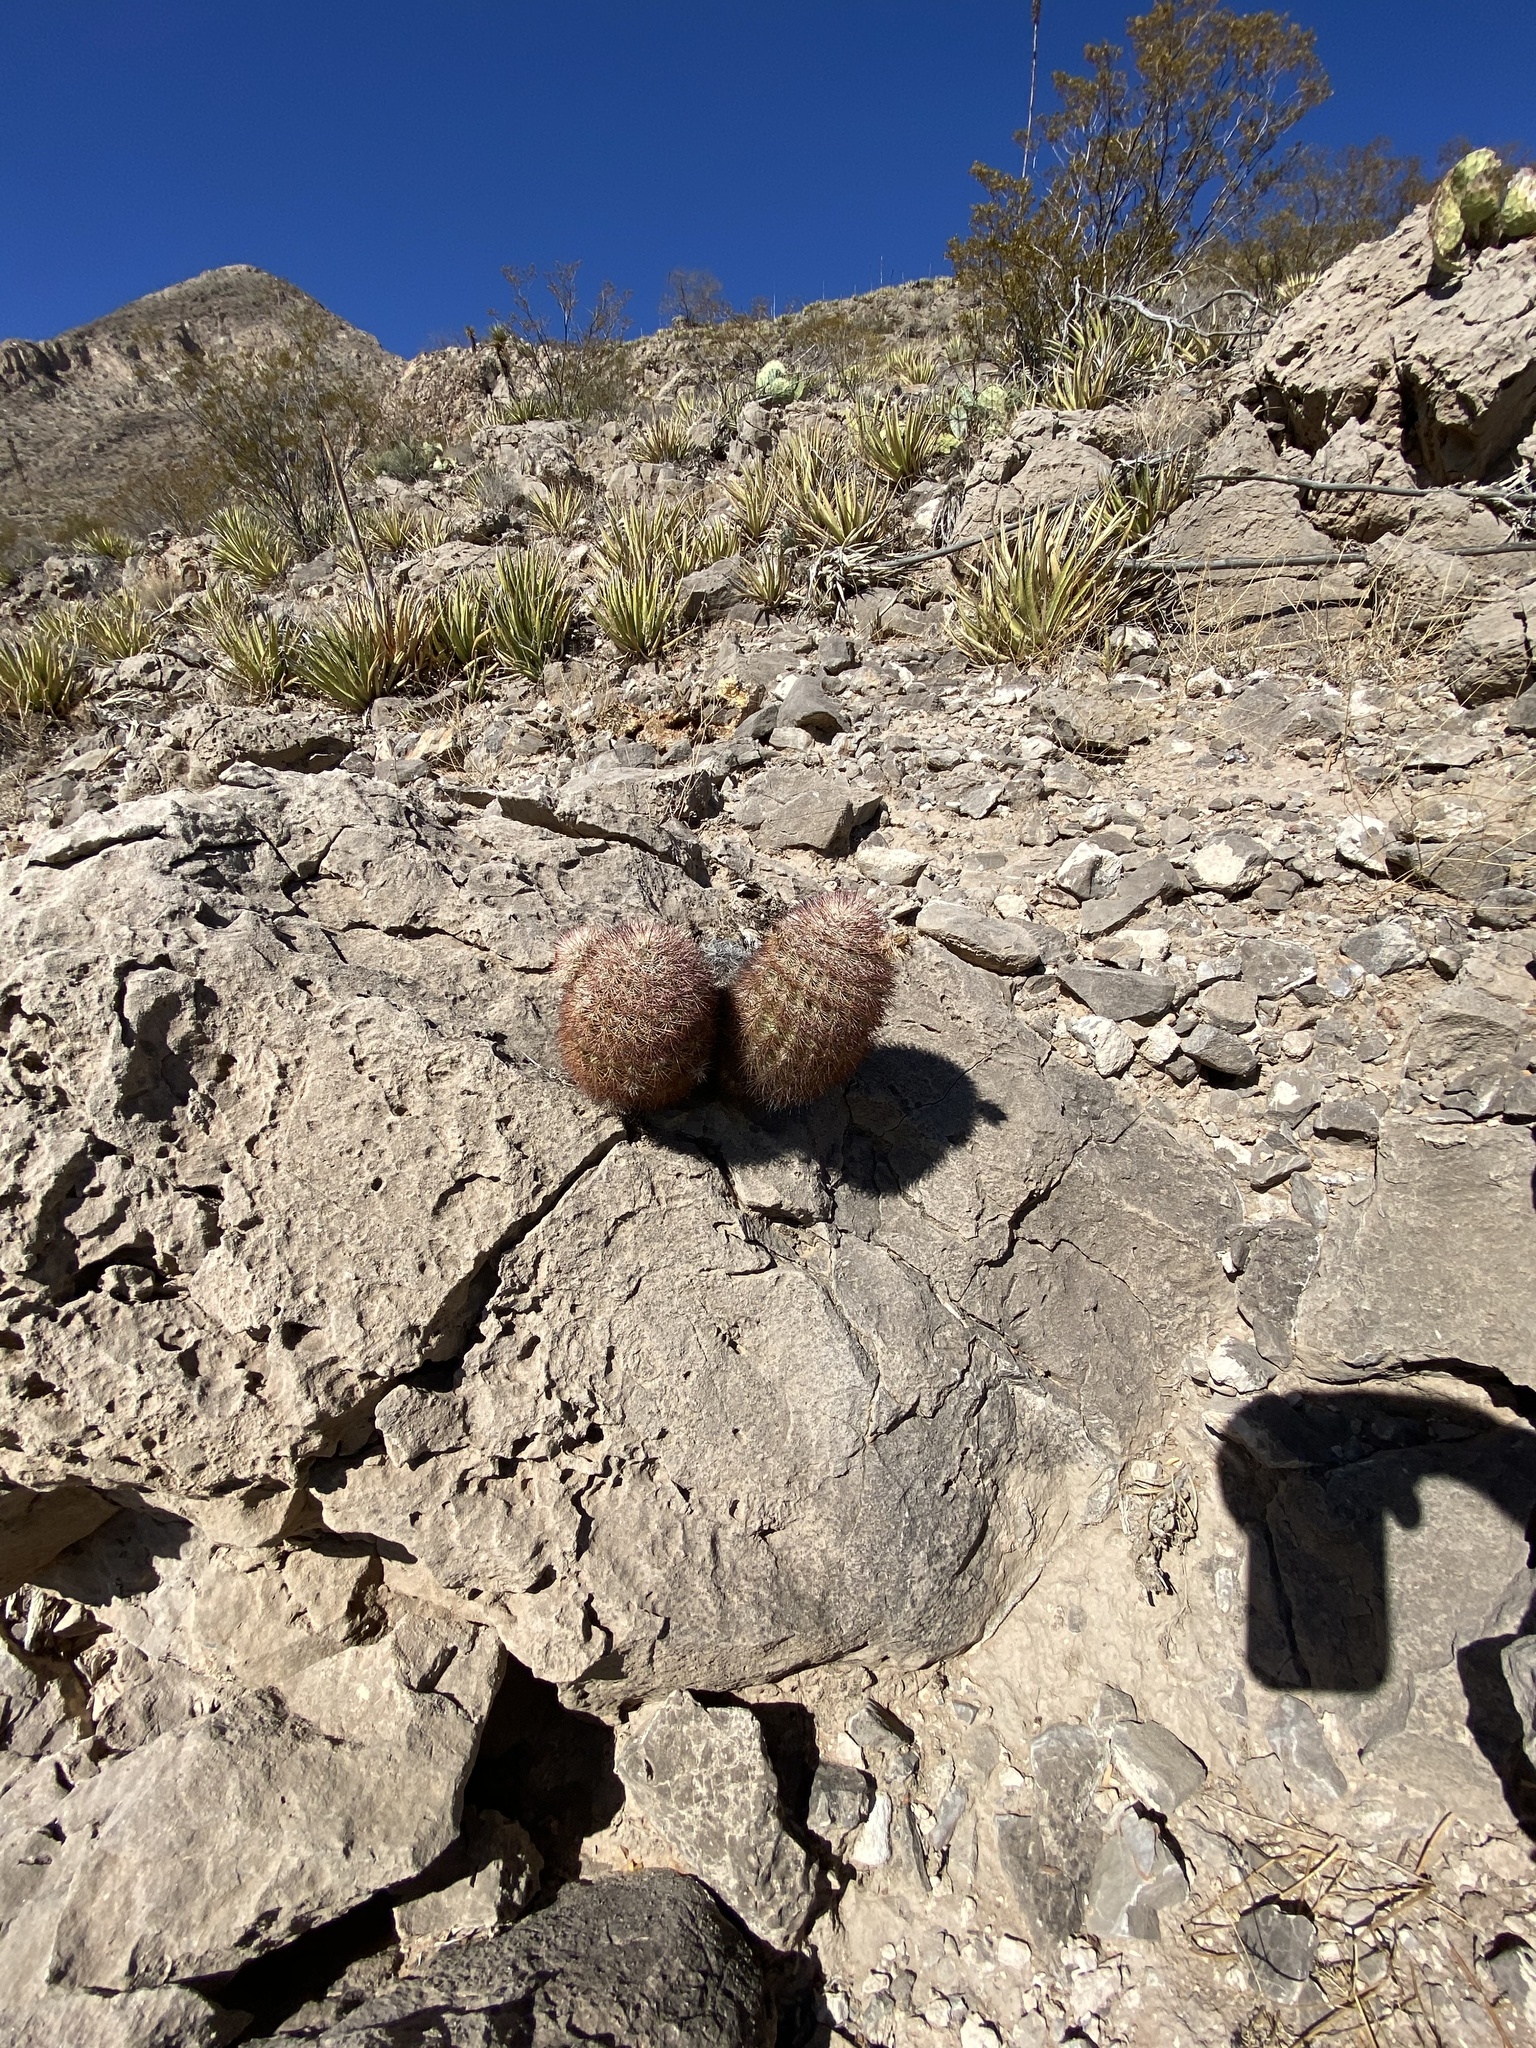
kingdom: Plantae
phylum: Tracheophyta
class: Magnoliopsida
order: Caryophyllales
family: Cactaceae
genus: Echinocereus
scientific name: Echinocereus dasyacanthus
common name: Spiny hedgehog cactus
